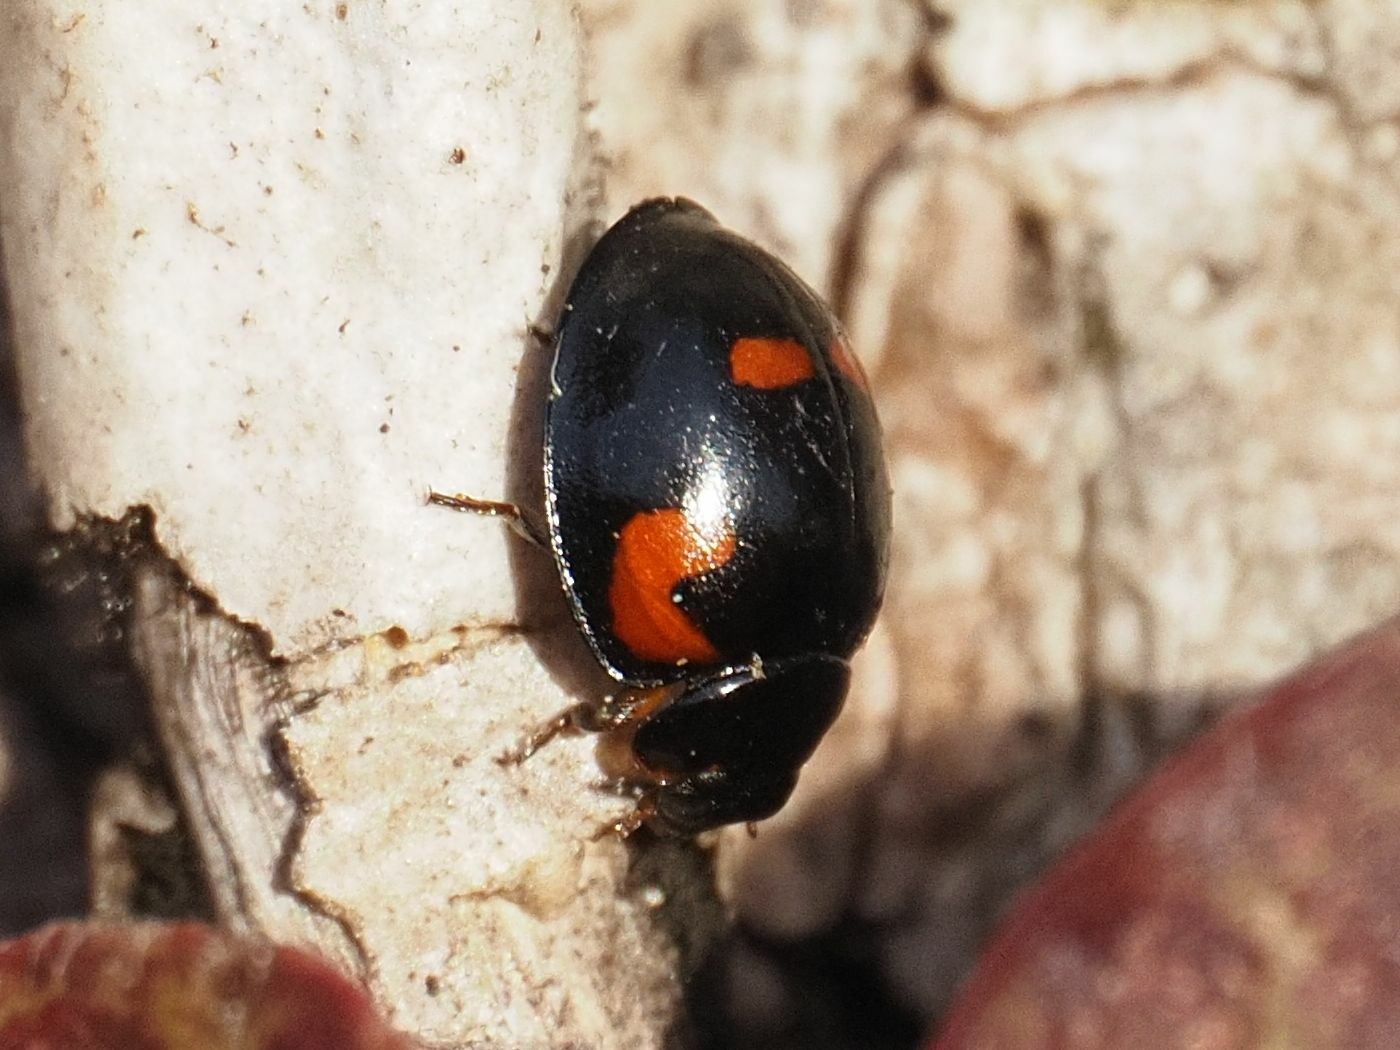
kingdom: Animalia
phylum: Arthropoda
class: Insecta
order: Coleoptera
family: Coccinellidae
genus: Brumus
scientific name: Brumus quadripustulatus
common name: Ladybird beetle
